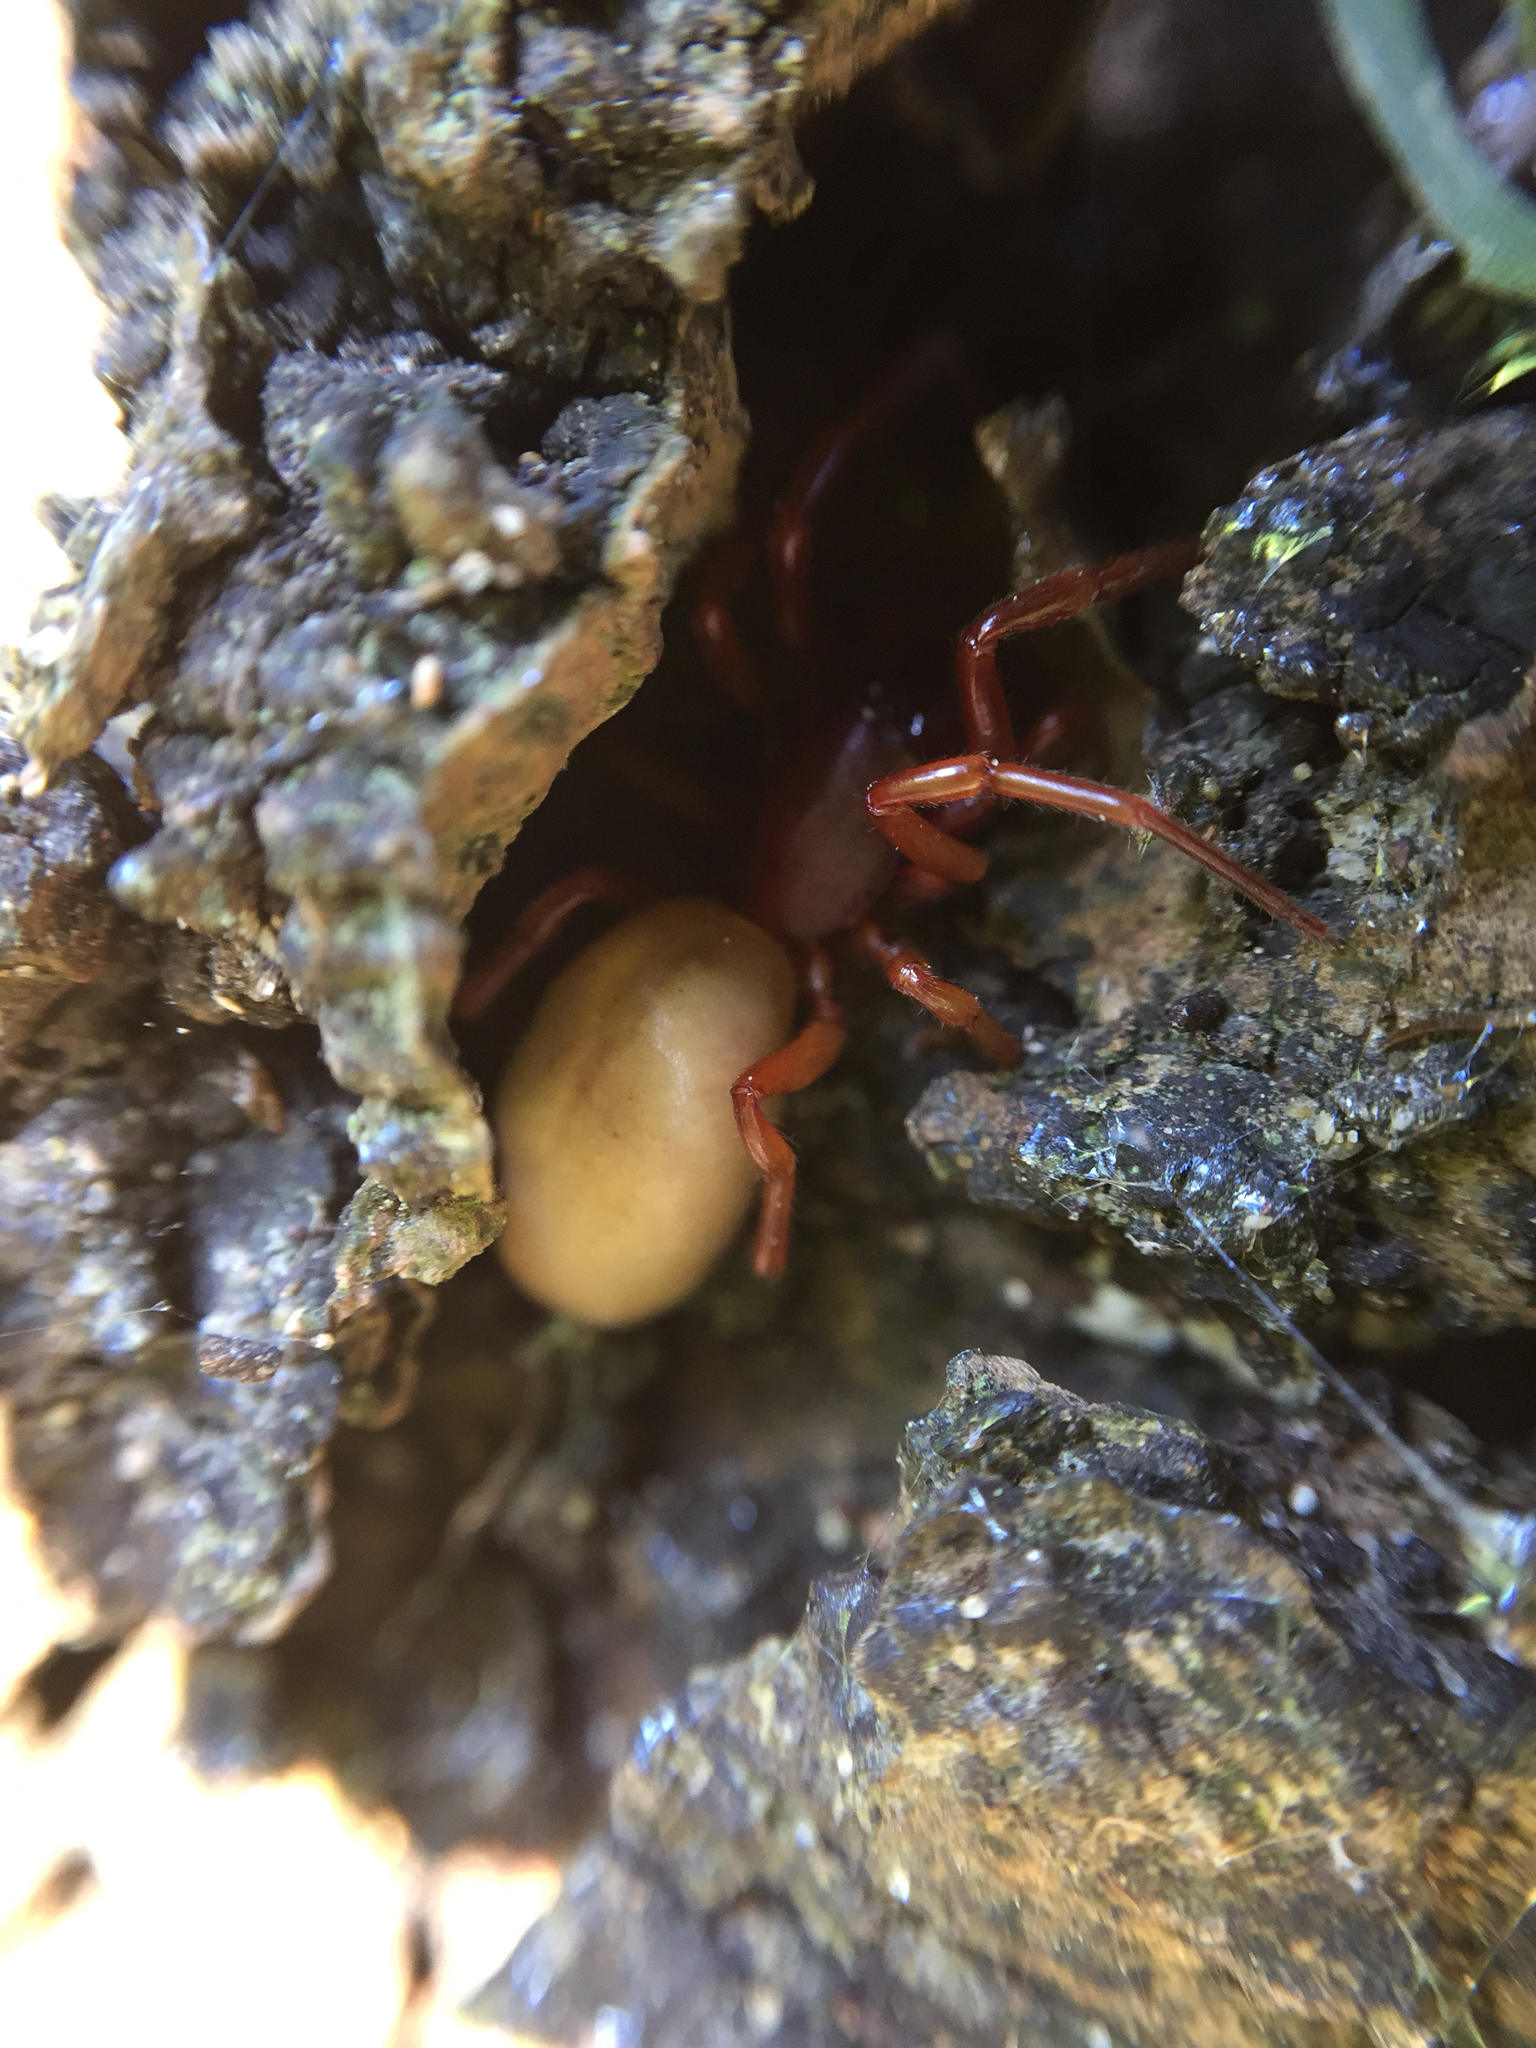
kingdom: Animalia
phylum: Arthropoda
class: Arachnida
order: Araneae
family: Dysderidae
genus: Dysdera
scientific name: Dysdera crocata
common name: Woodlouse spider
